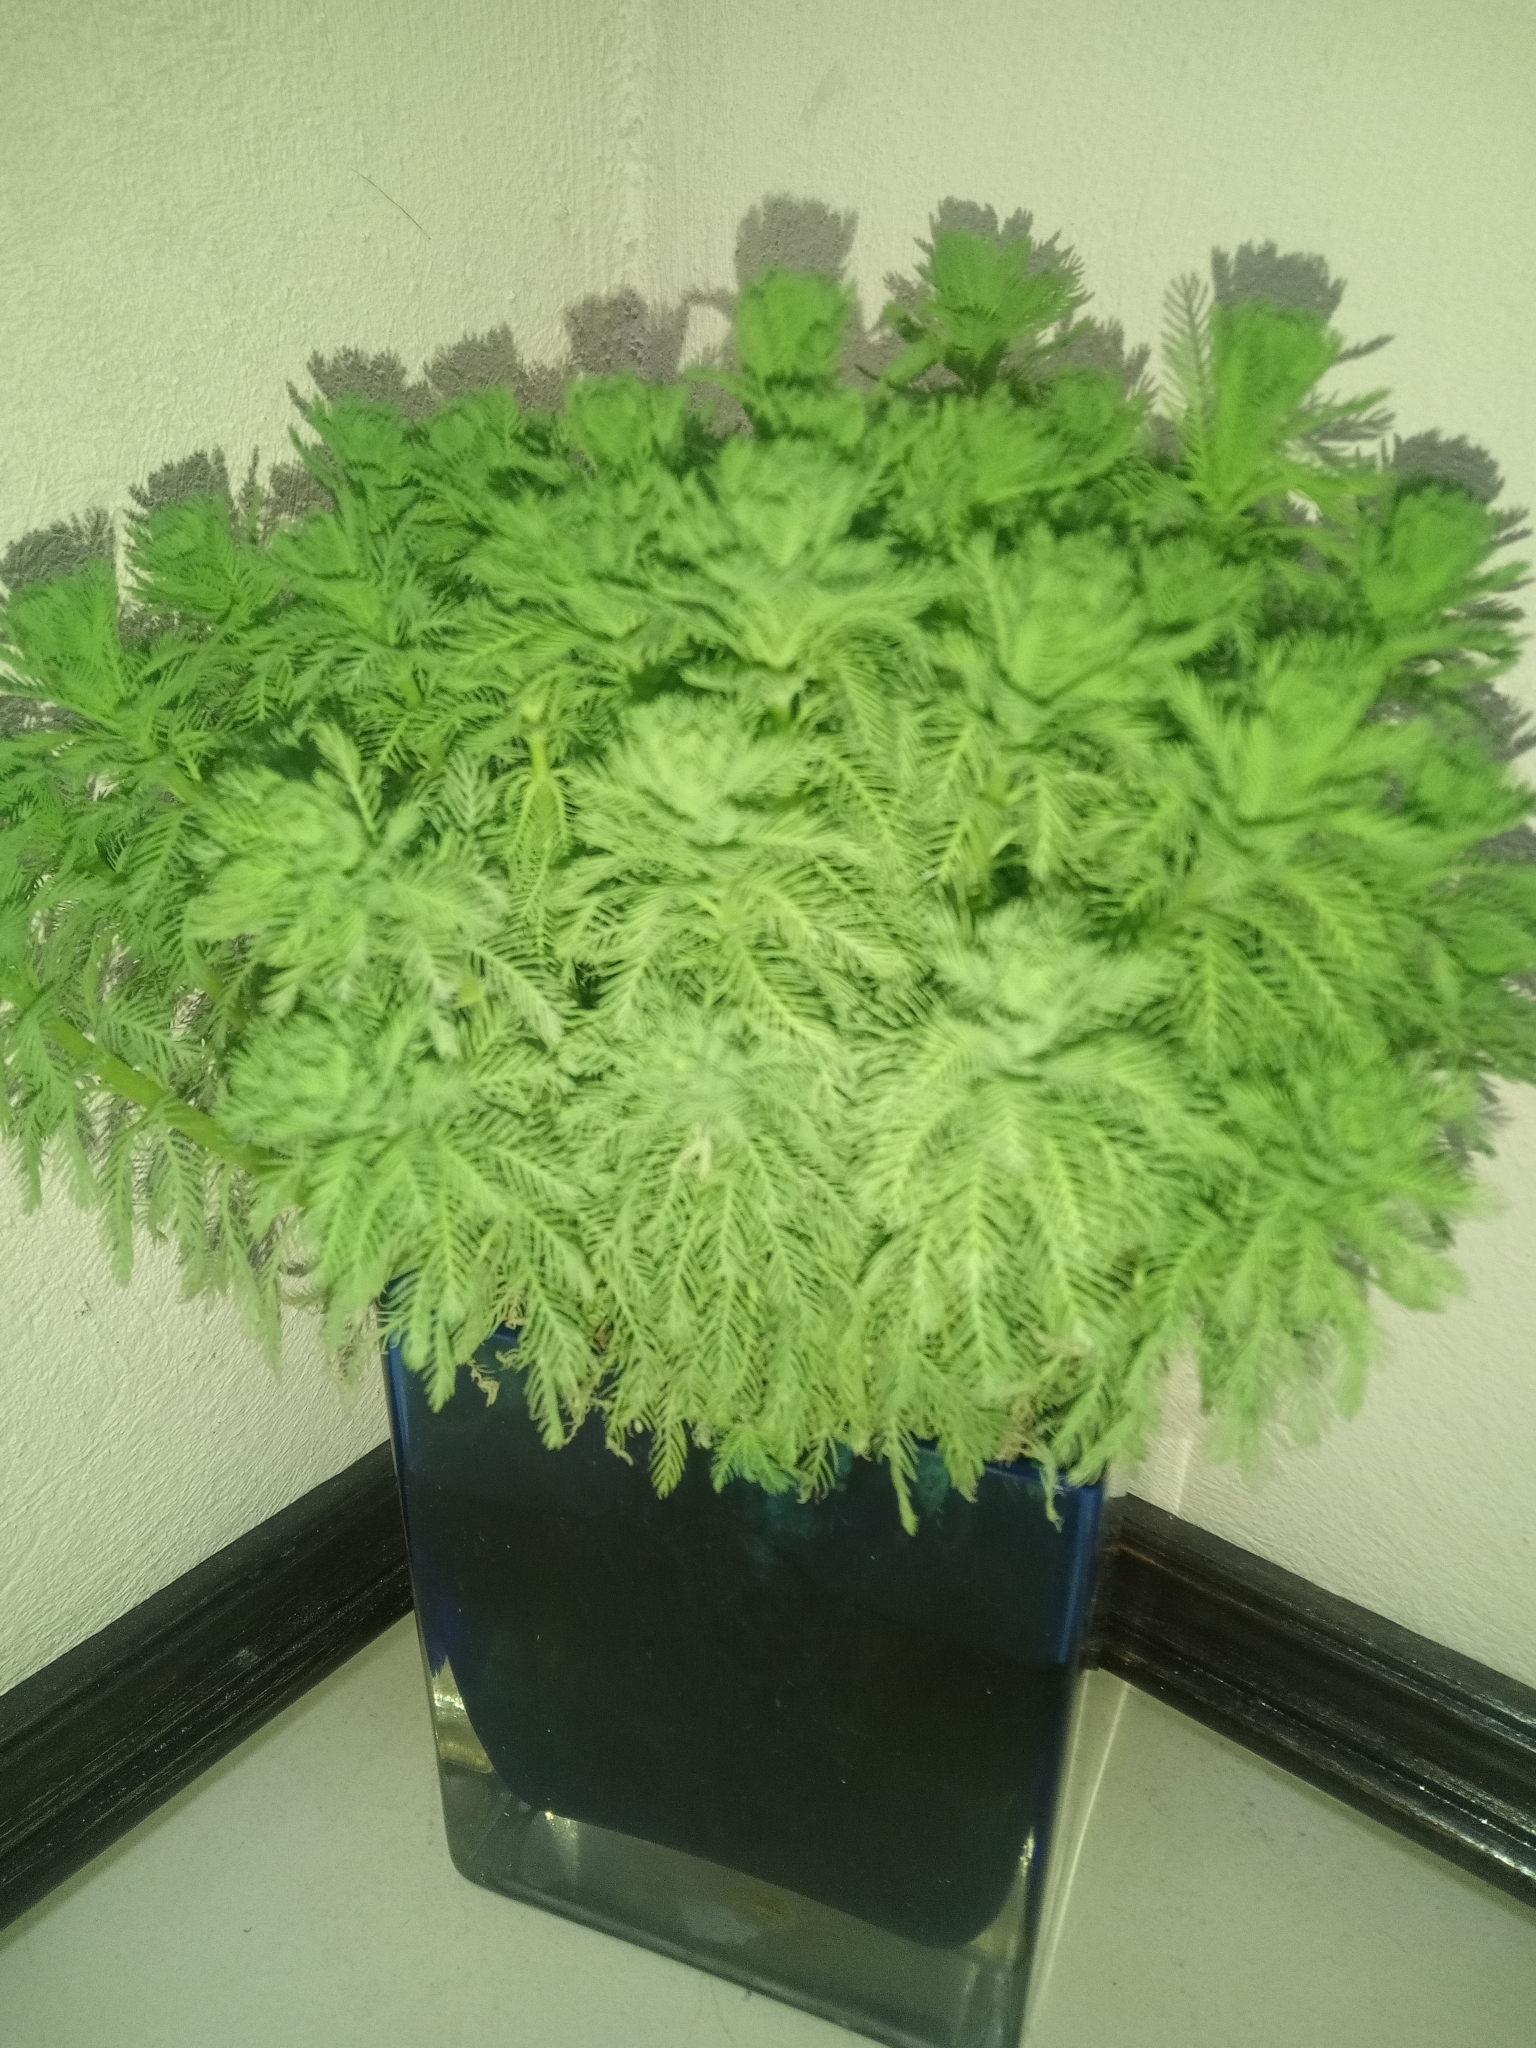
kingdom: Plantae
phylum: Tracheophyta
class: Magnoliopsida
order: Saxifragales
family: Haloragaceae
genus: Myriophyllum
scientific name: Myriophyllum aquaticum
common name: Parrot's feather
